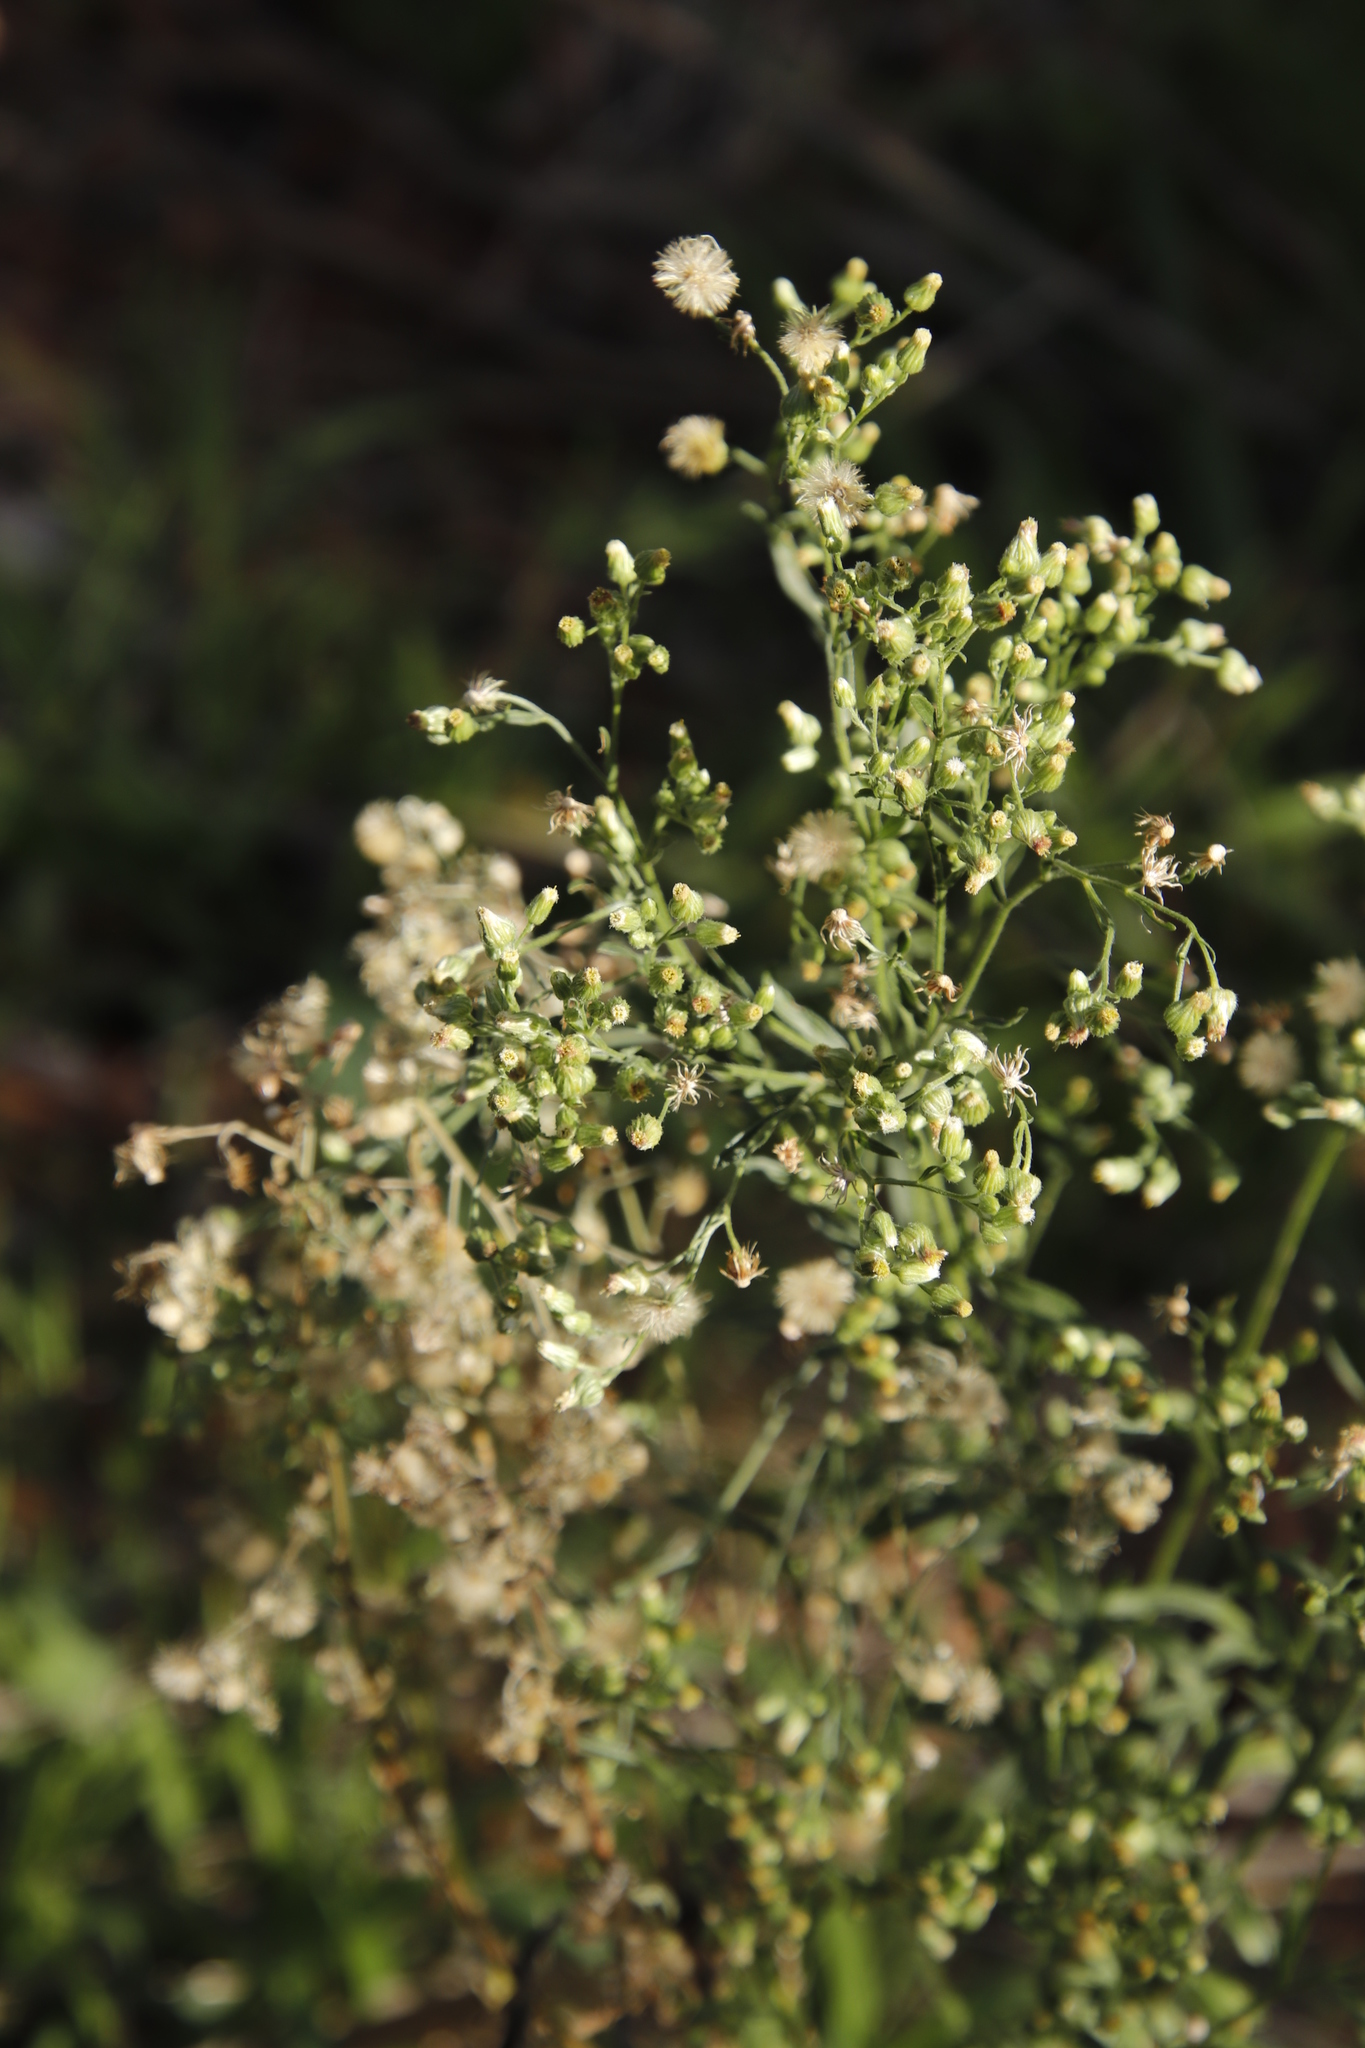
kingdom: Plantae
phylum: Tracheophyta
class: Magnoliopsida
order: Asterales
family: Asteraceae
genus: Erigeron
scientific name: Erigeron sumatrensis
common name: Daisy
